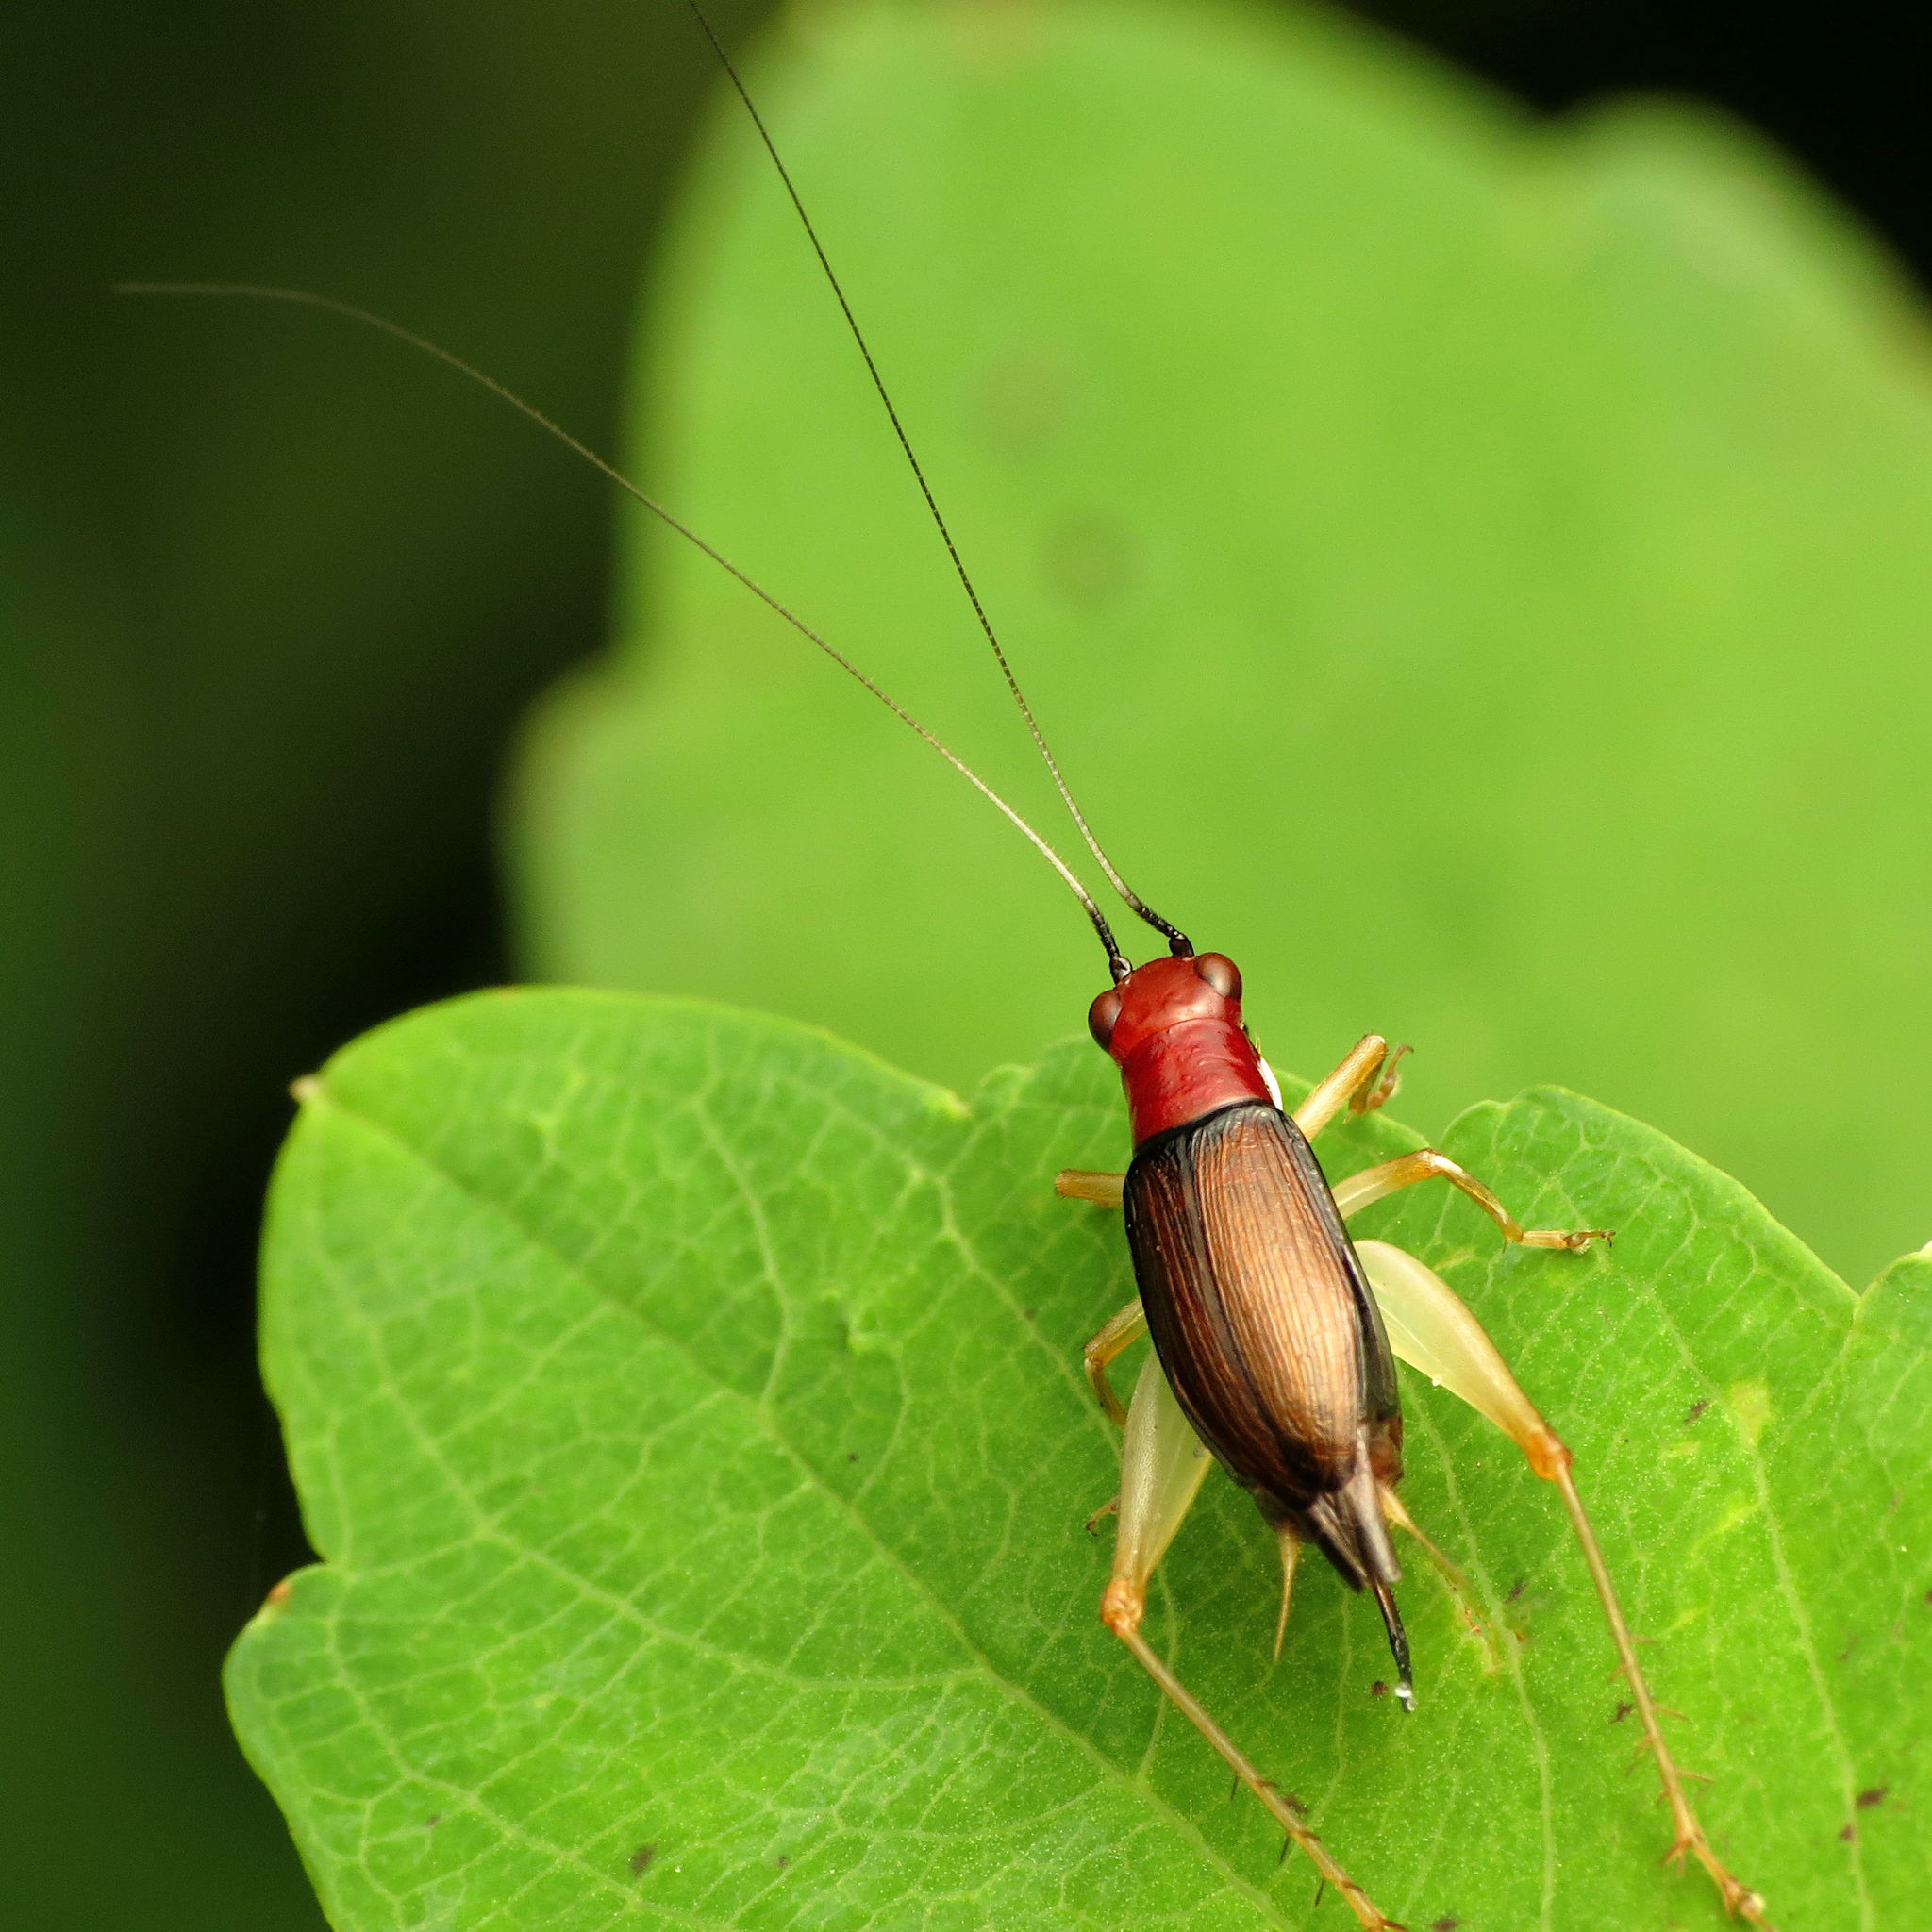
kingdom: Animalia
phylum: Arthropoda
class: Insecta
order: Orthoptera
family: Trigonidiidae
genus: Phyllopalpus
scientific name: Phyllopalpus pulchellus
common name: Handsome trig
